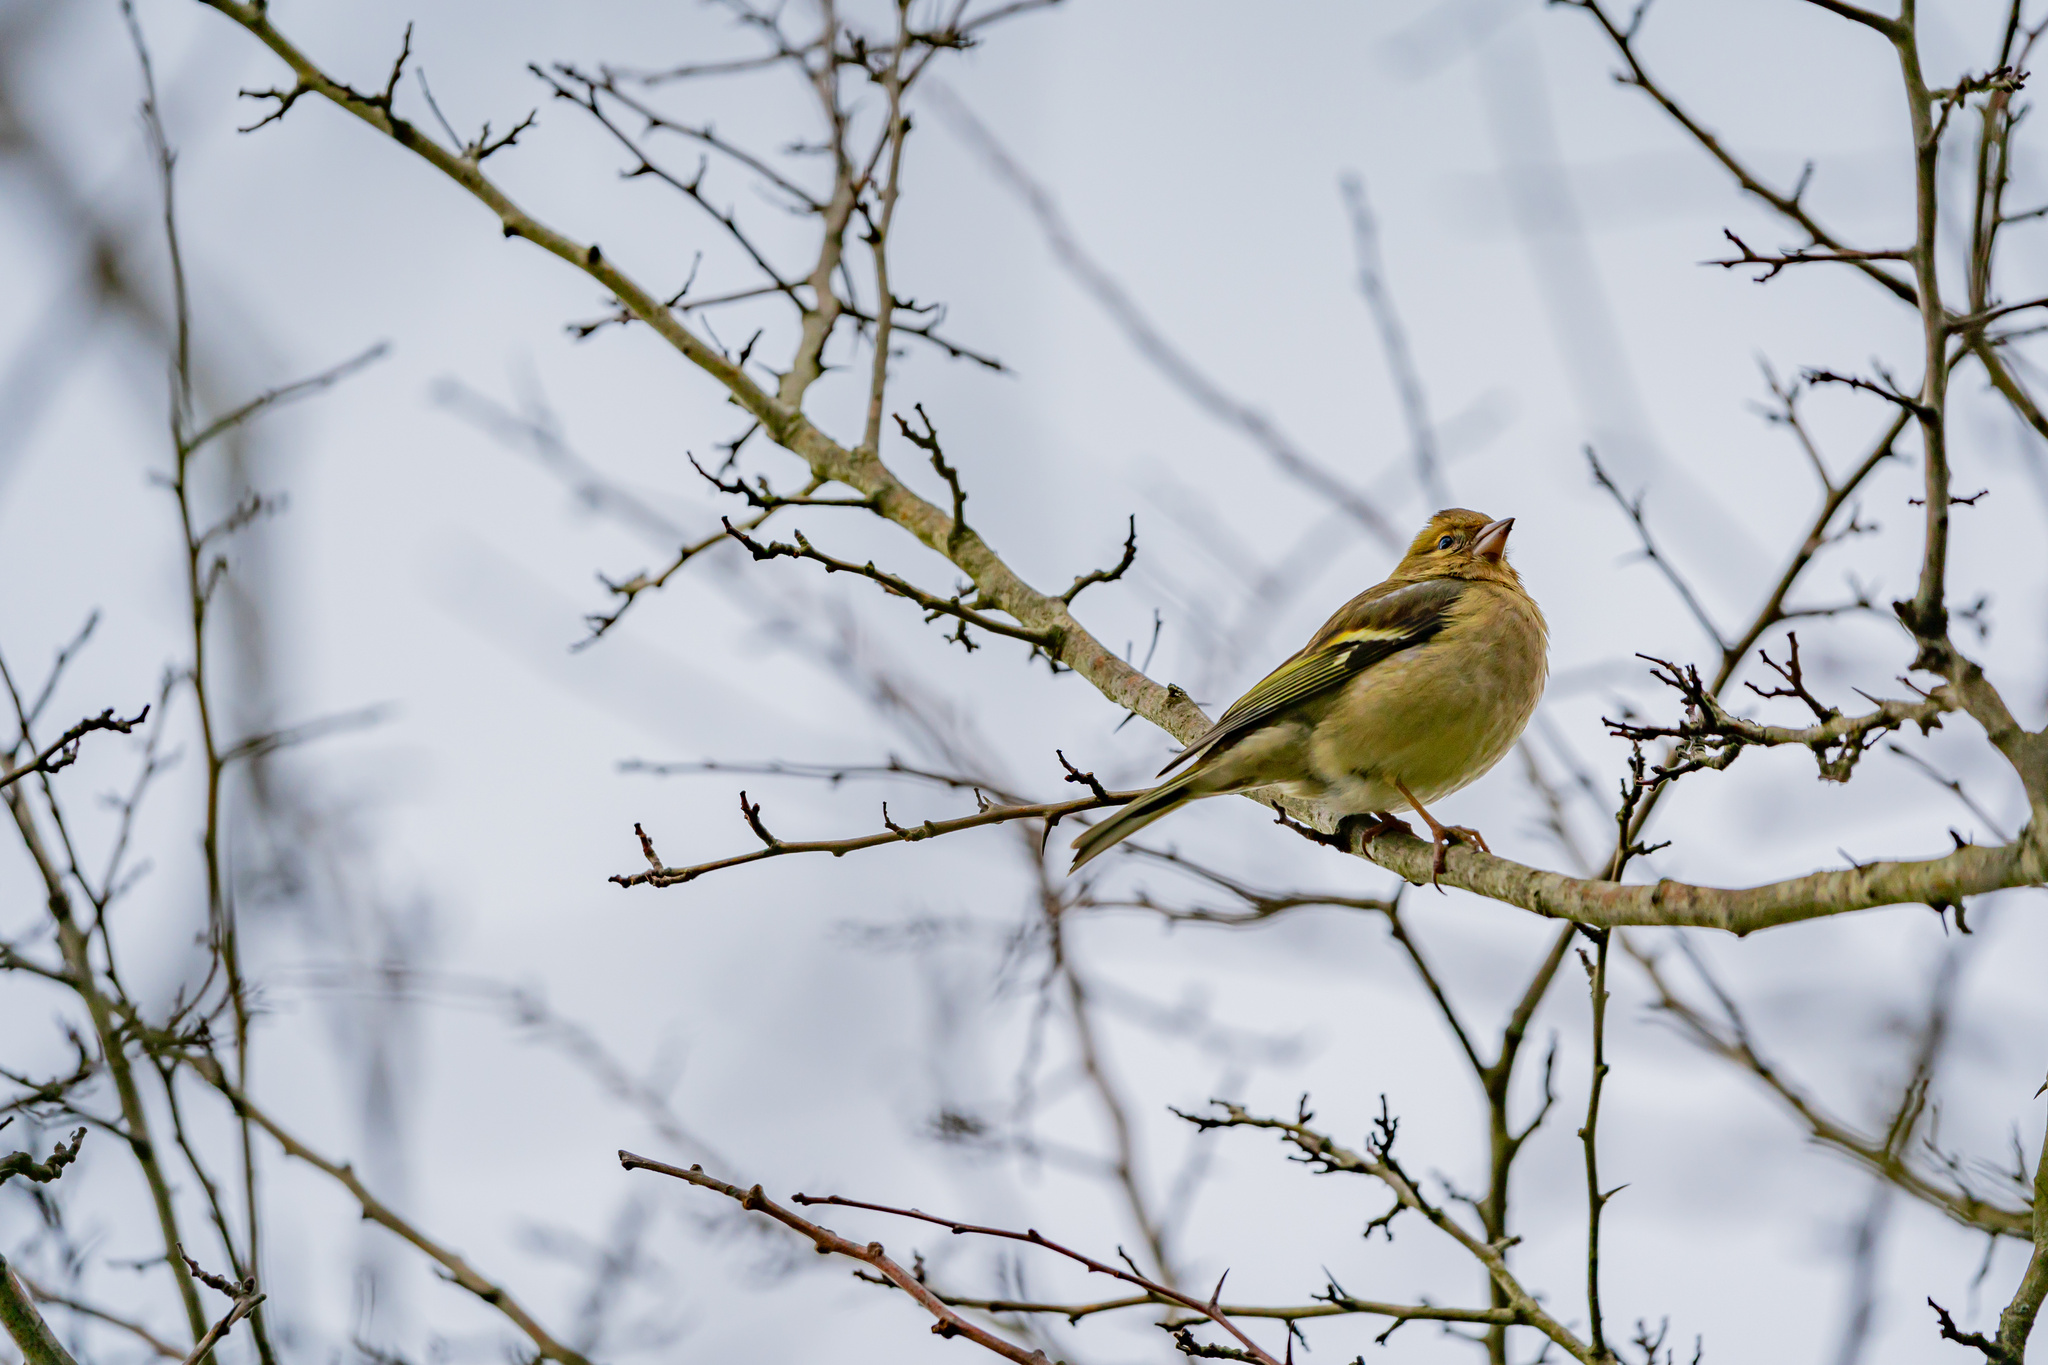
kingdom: Animalia
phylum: Chordata
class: Aves
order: Passeriformes
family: Fringillidae
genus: Fringilla
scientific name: Fringilla coelebs
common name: Common chaffinch
